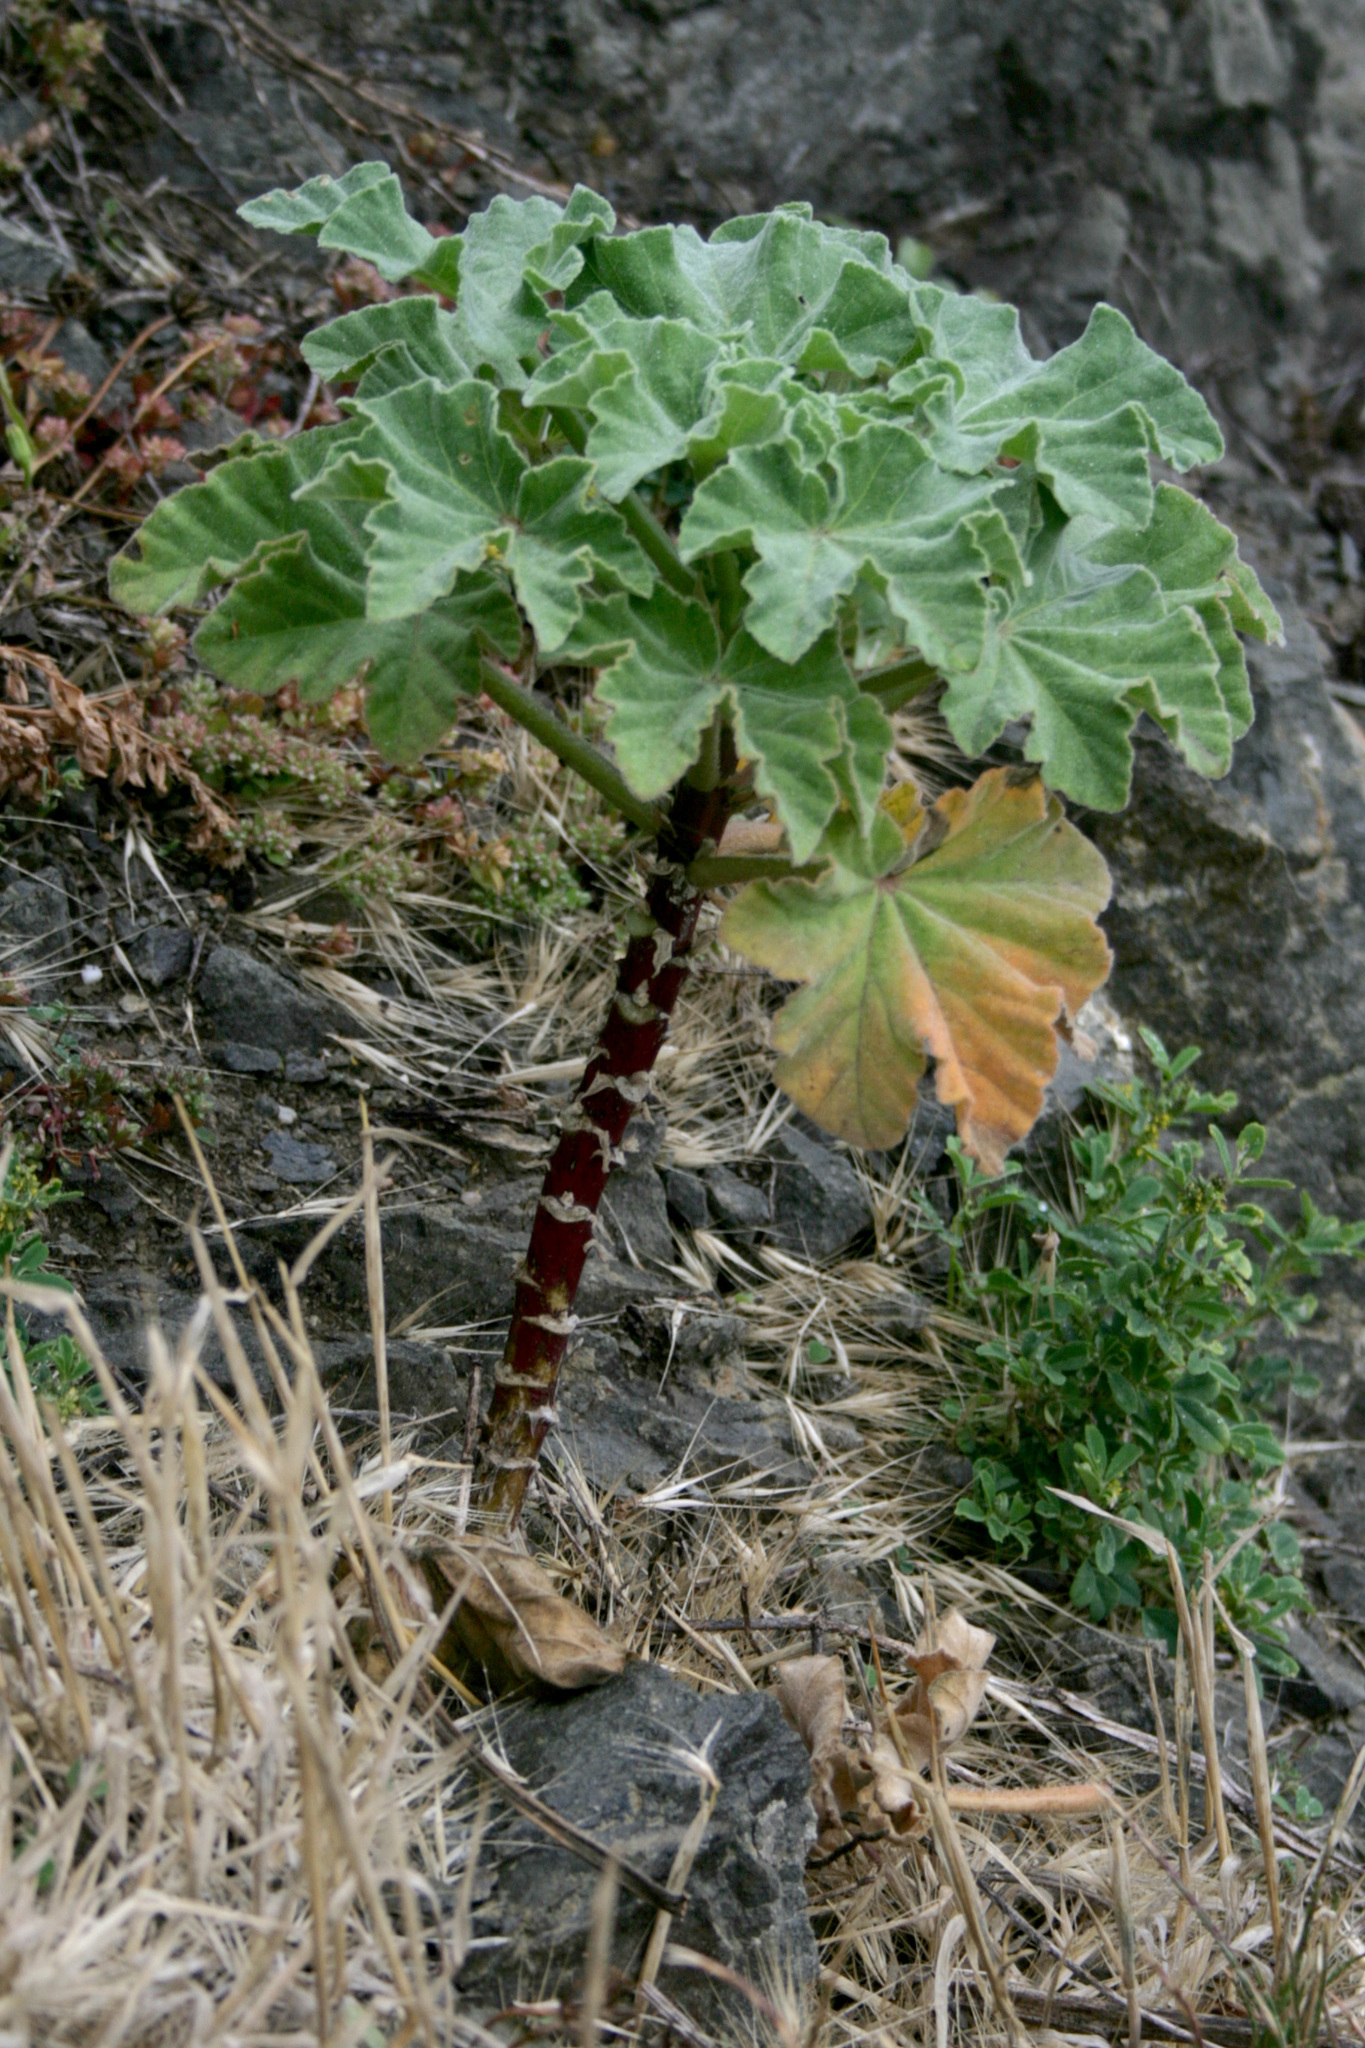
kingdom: Plantae
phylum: Tracheophyta
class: Magnoliopsida
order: Malvales
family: Malvaceae
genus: Malva
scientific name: Malva arborea
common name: Tree mallow
